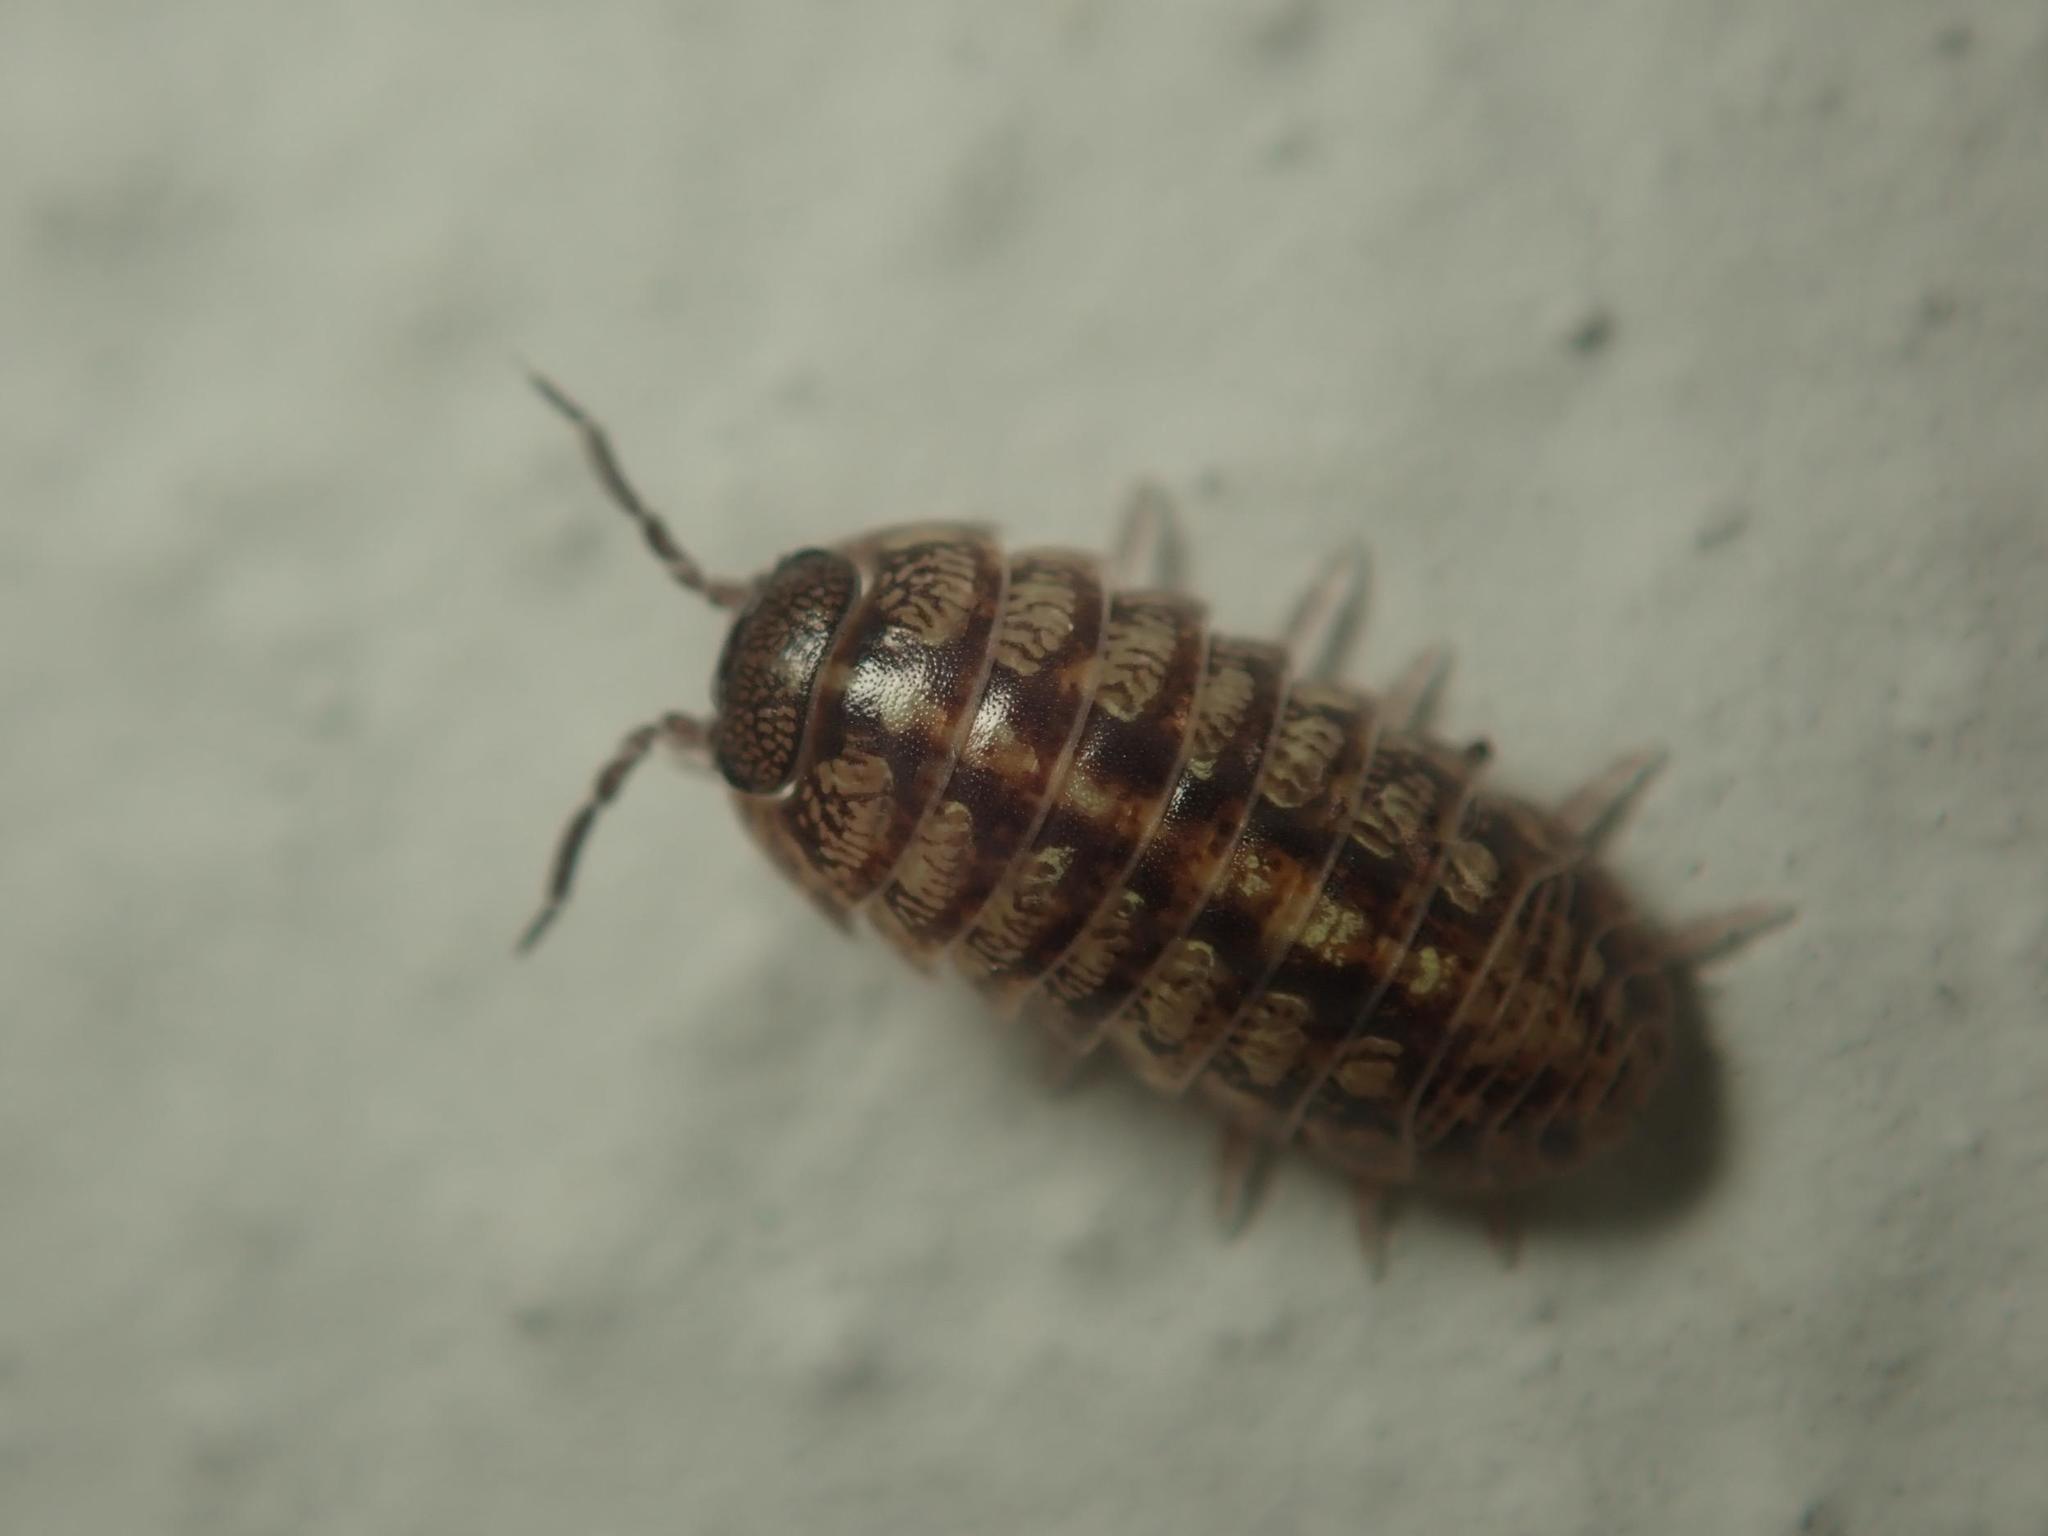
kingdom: Animalia
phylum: Arthropoda
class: Malacostraca
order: Isopoda
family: Armadillidiidae
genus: Armadillidium
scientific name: Armadillidium vulgare
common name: Common pill woodlouse
